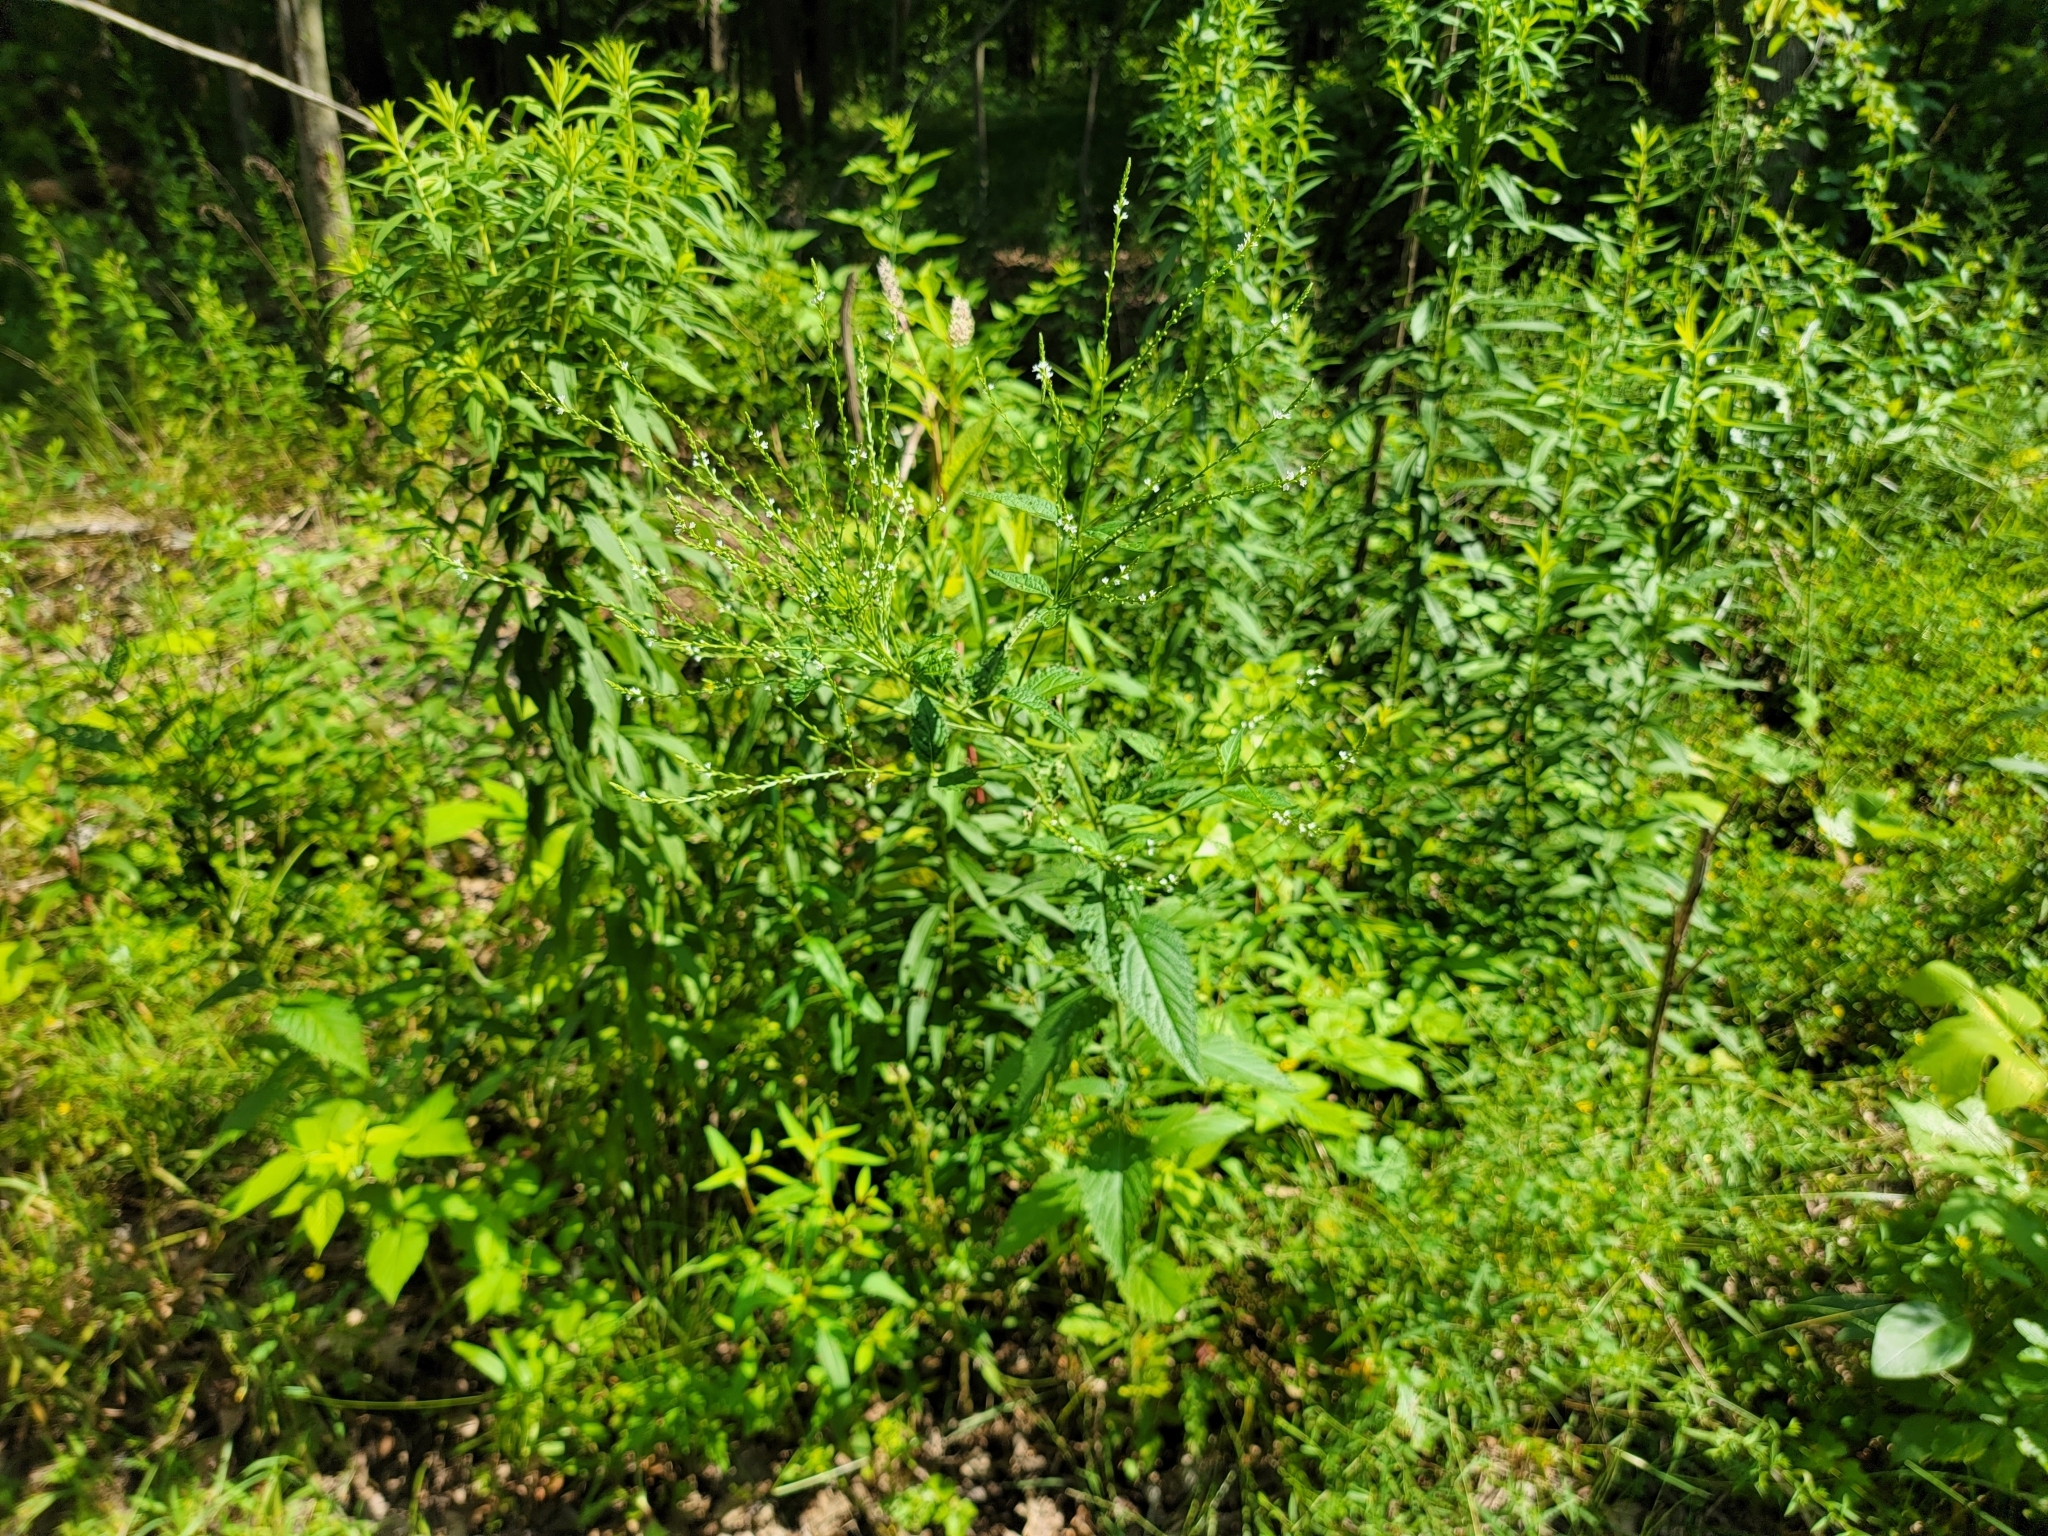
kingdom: Plantae
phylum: Tracheophyta
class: Magnoliopsida
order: Lamiales
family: Verbenaceae
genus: Verbena
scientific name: Verbena urticifolia
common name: Nettle-leaved vervain
